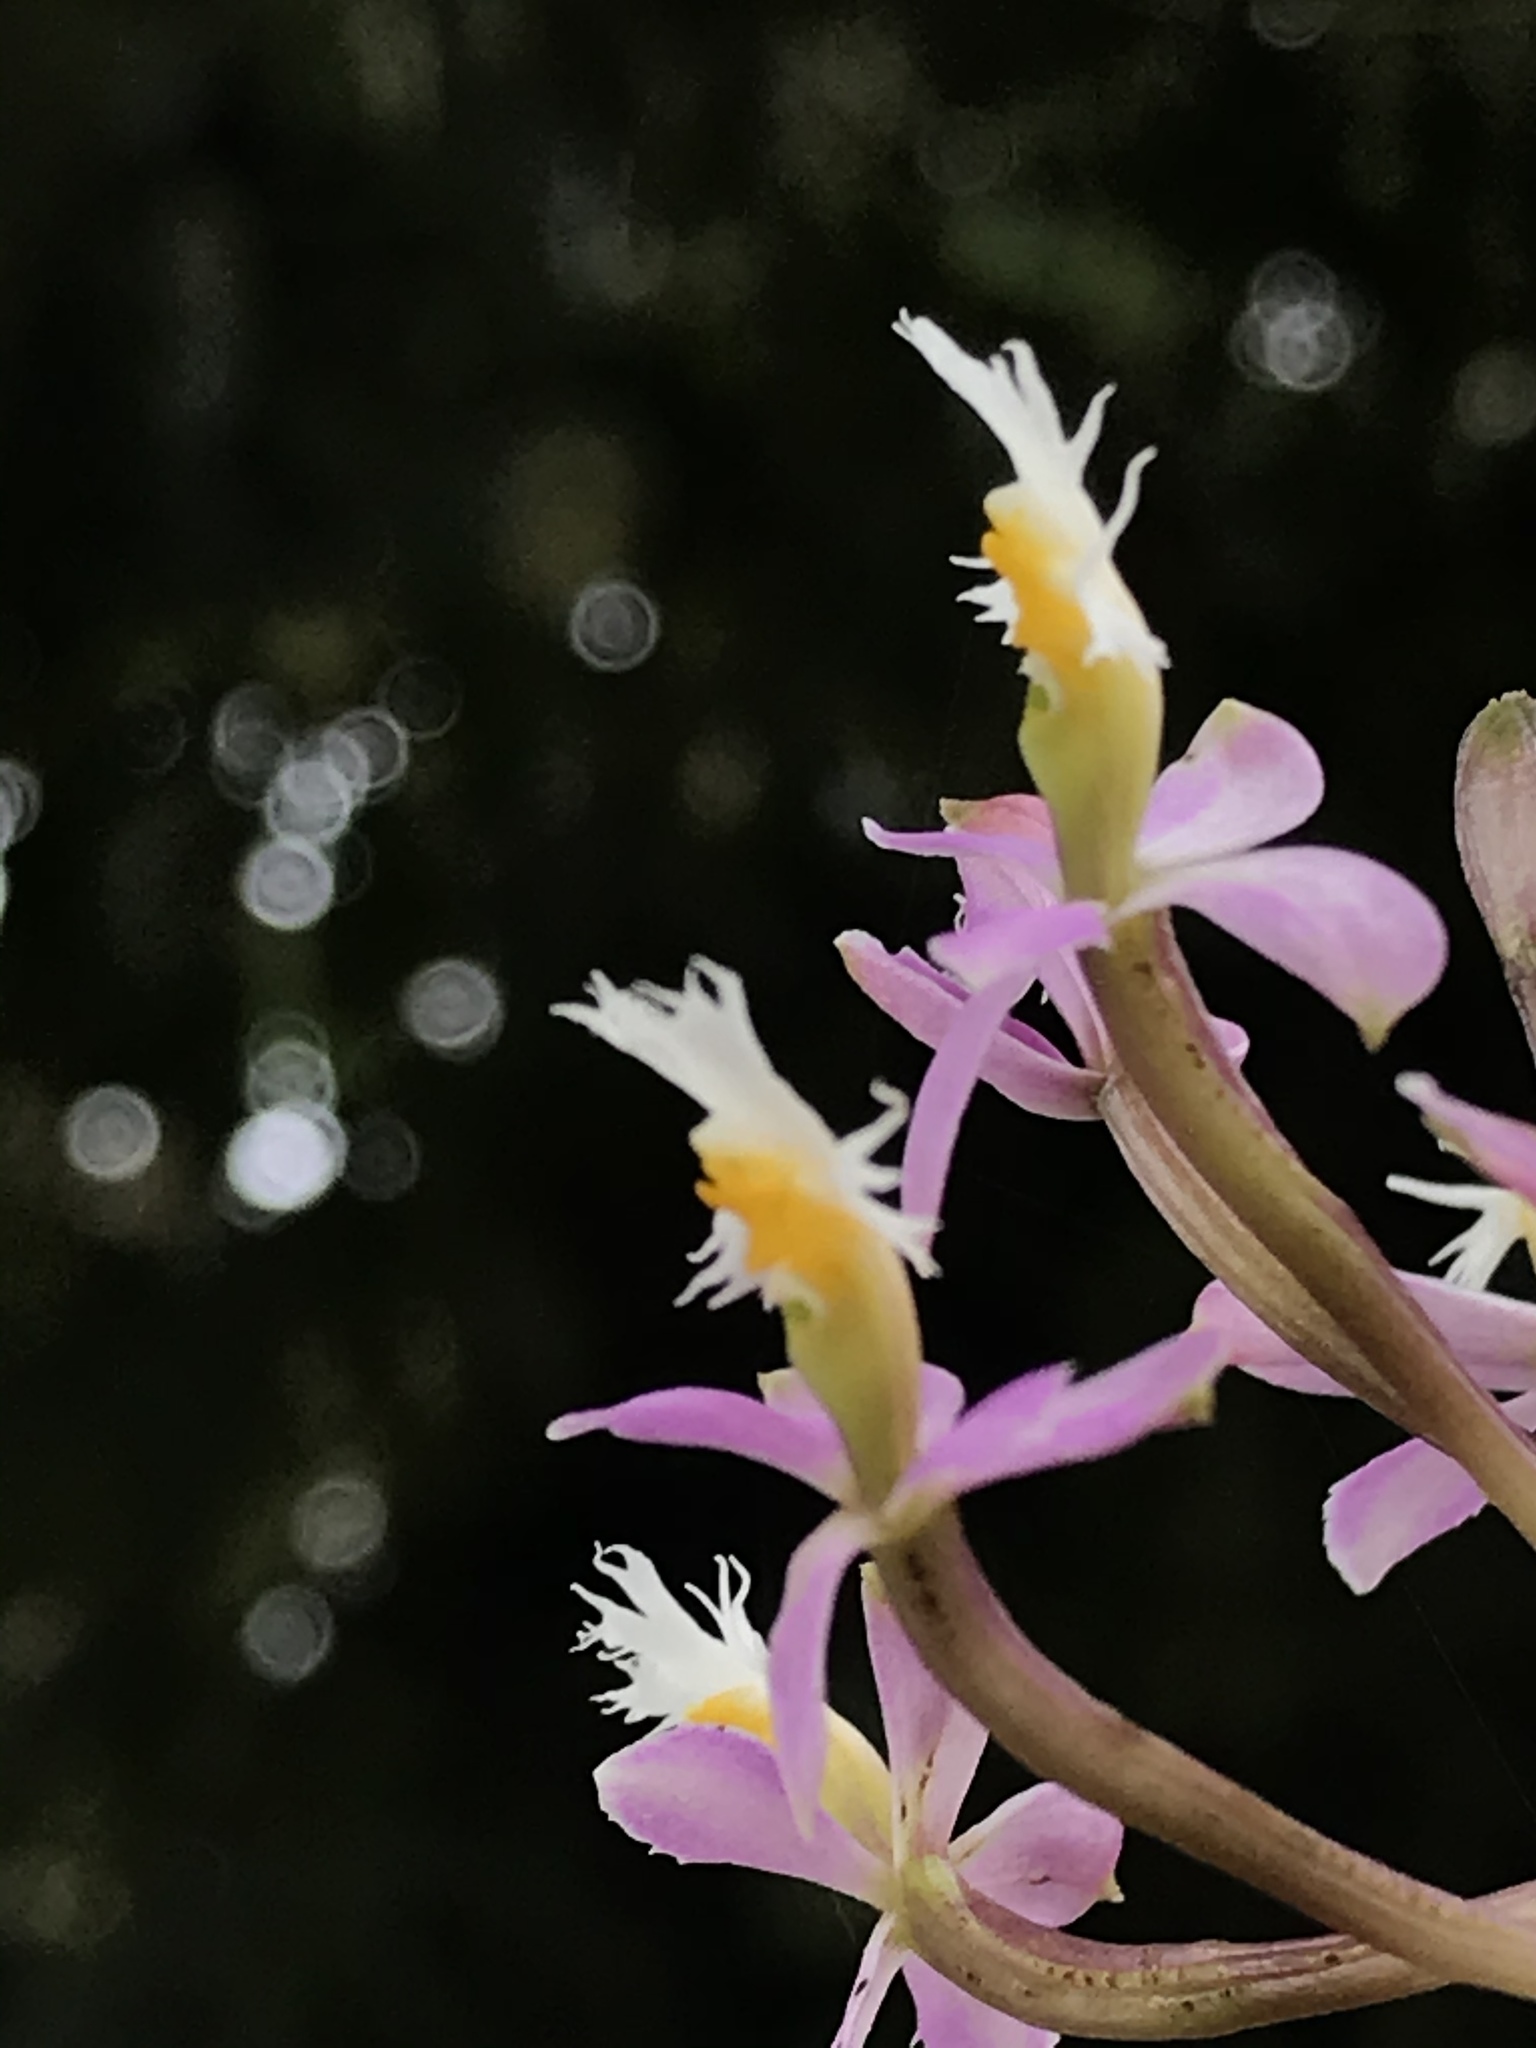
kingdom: Plantae
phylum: Tracheophyta
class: Liliopsida
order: Asparagales
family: Orchidaceae
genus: Epidendrum
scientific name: Epidendrum arachnoglossum
